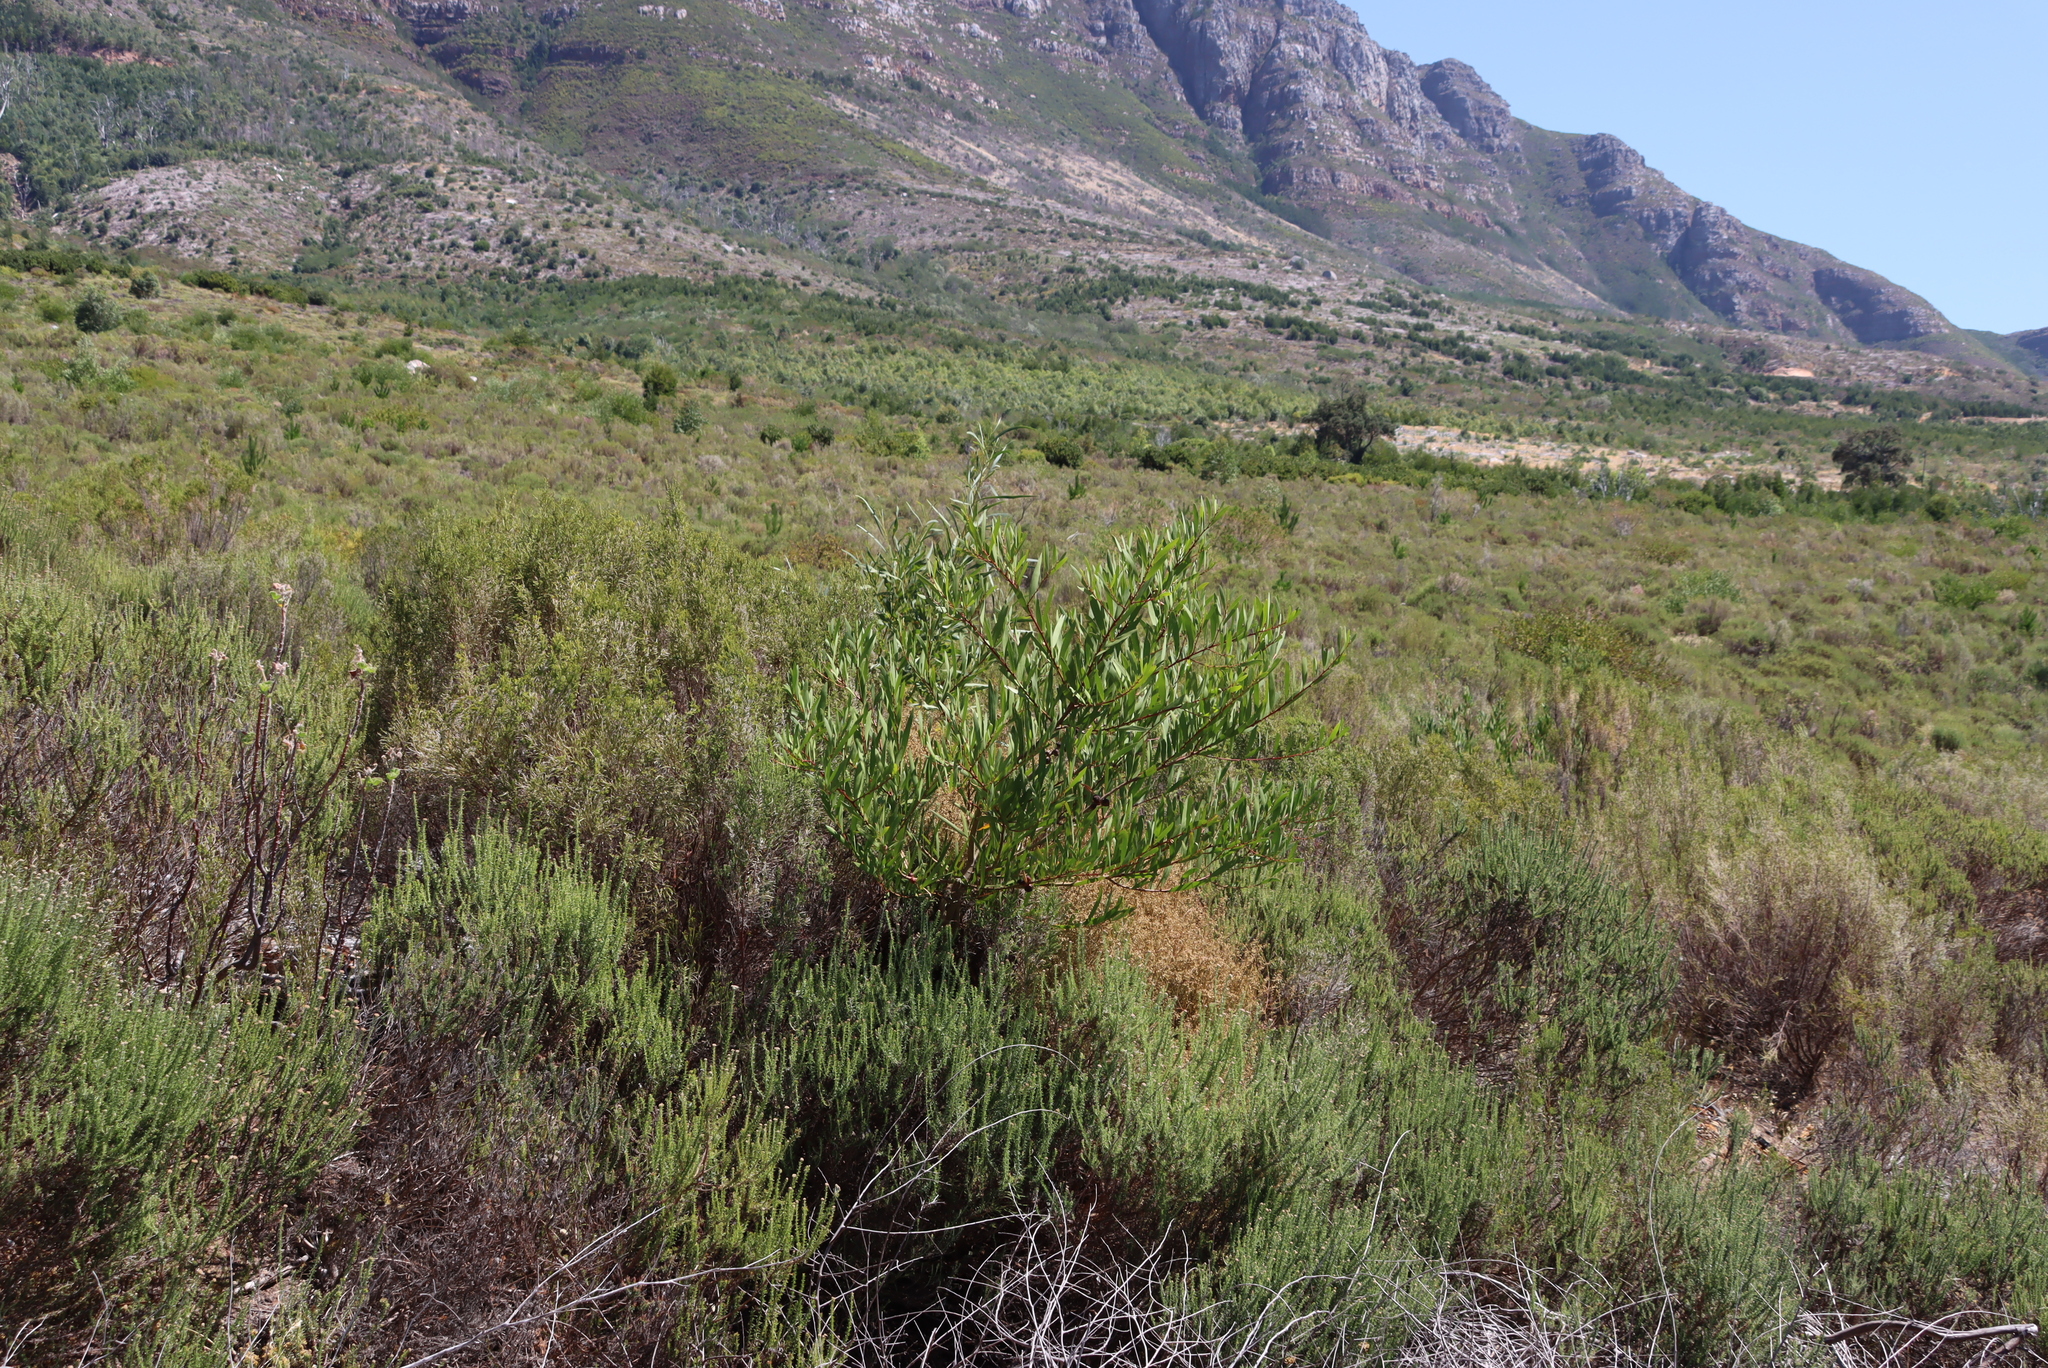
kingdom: Plantae
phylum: Tracheophyta
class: Magnoliopsida
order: Fabales
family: Fabaceae
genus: Acacia
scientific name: Acacia longifolia
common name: Sydney golden wattle
